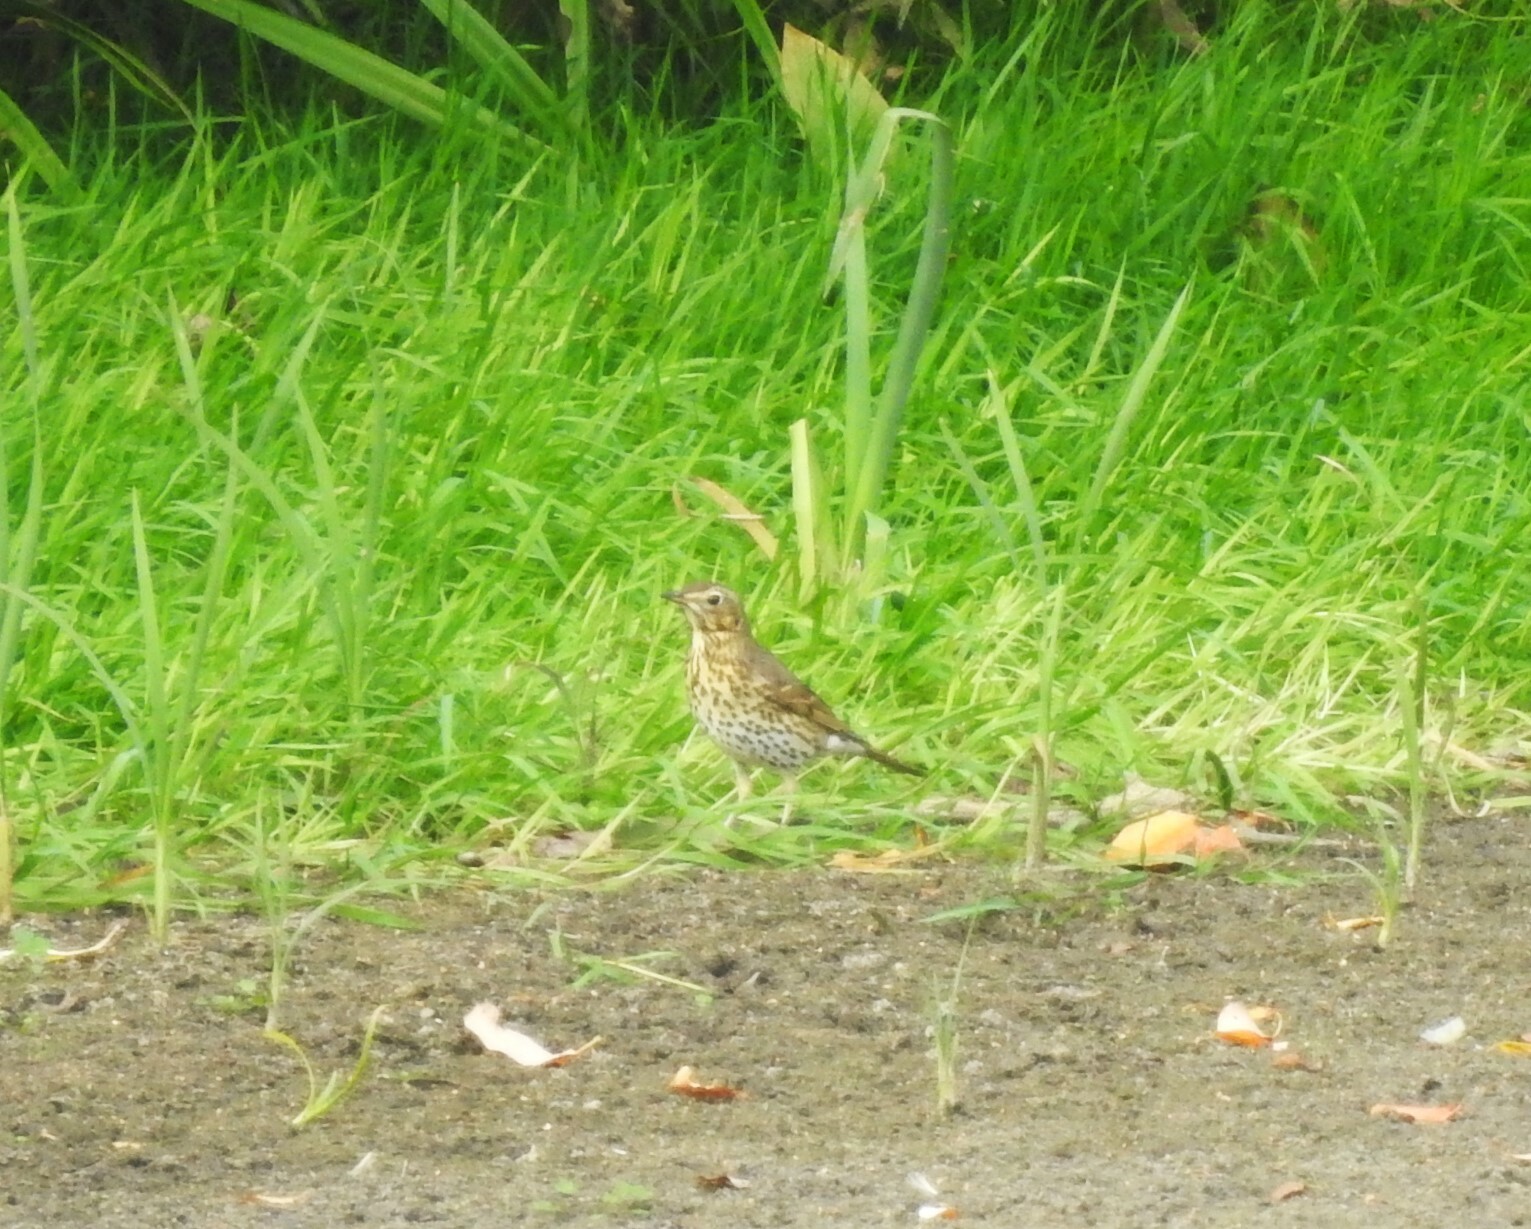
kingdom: Animalia
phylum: Chordata
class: Aves
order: Passeriformes
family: Turdidae
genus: Turdus
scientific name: Turdus philomelos
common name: Song thrush
